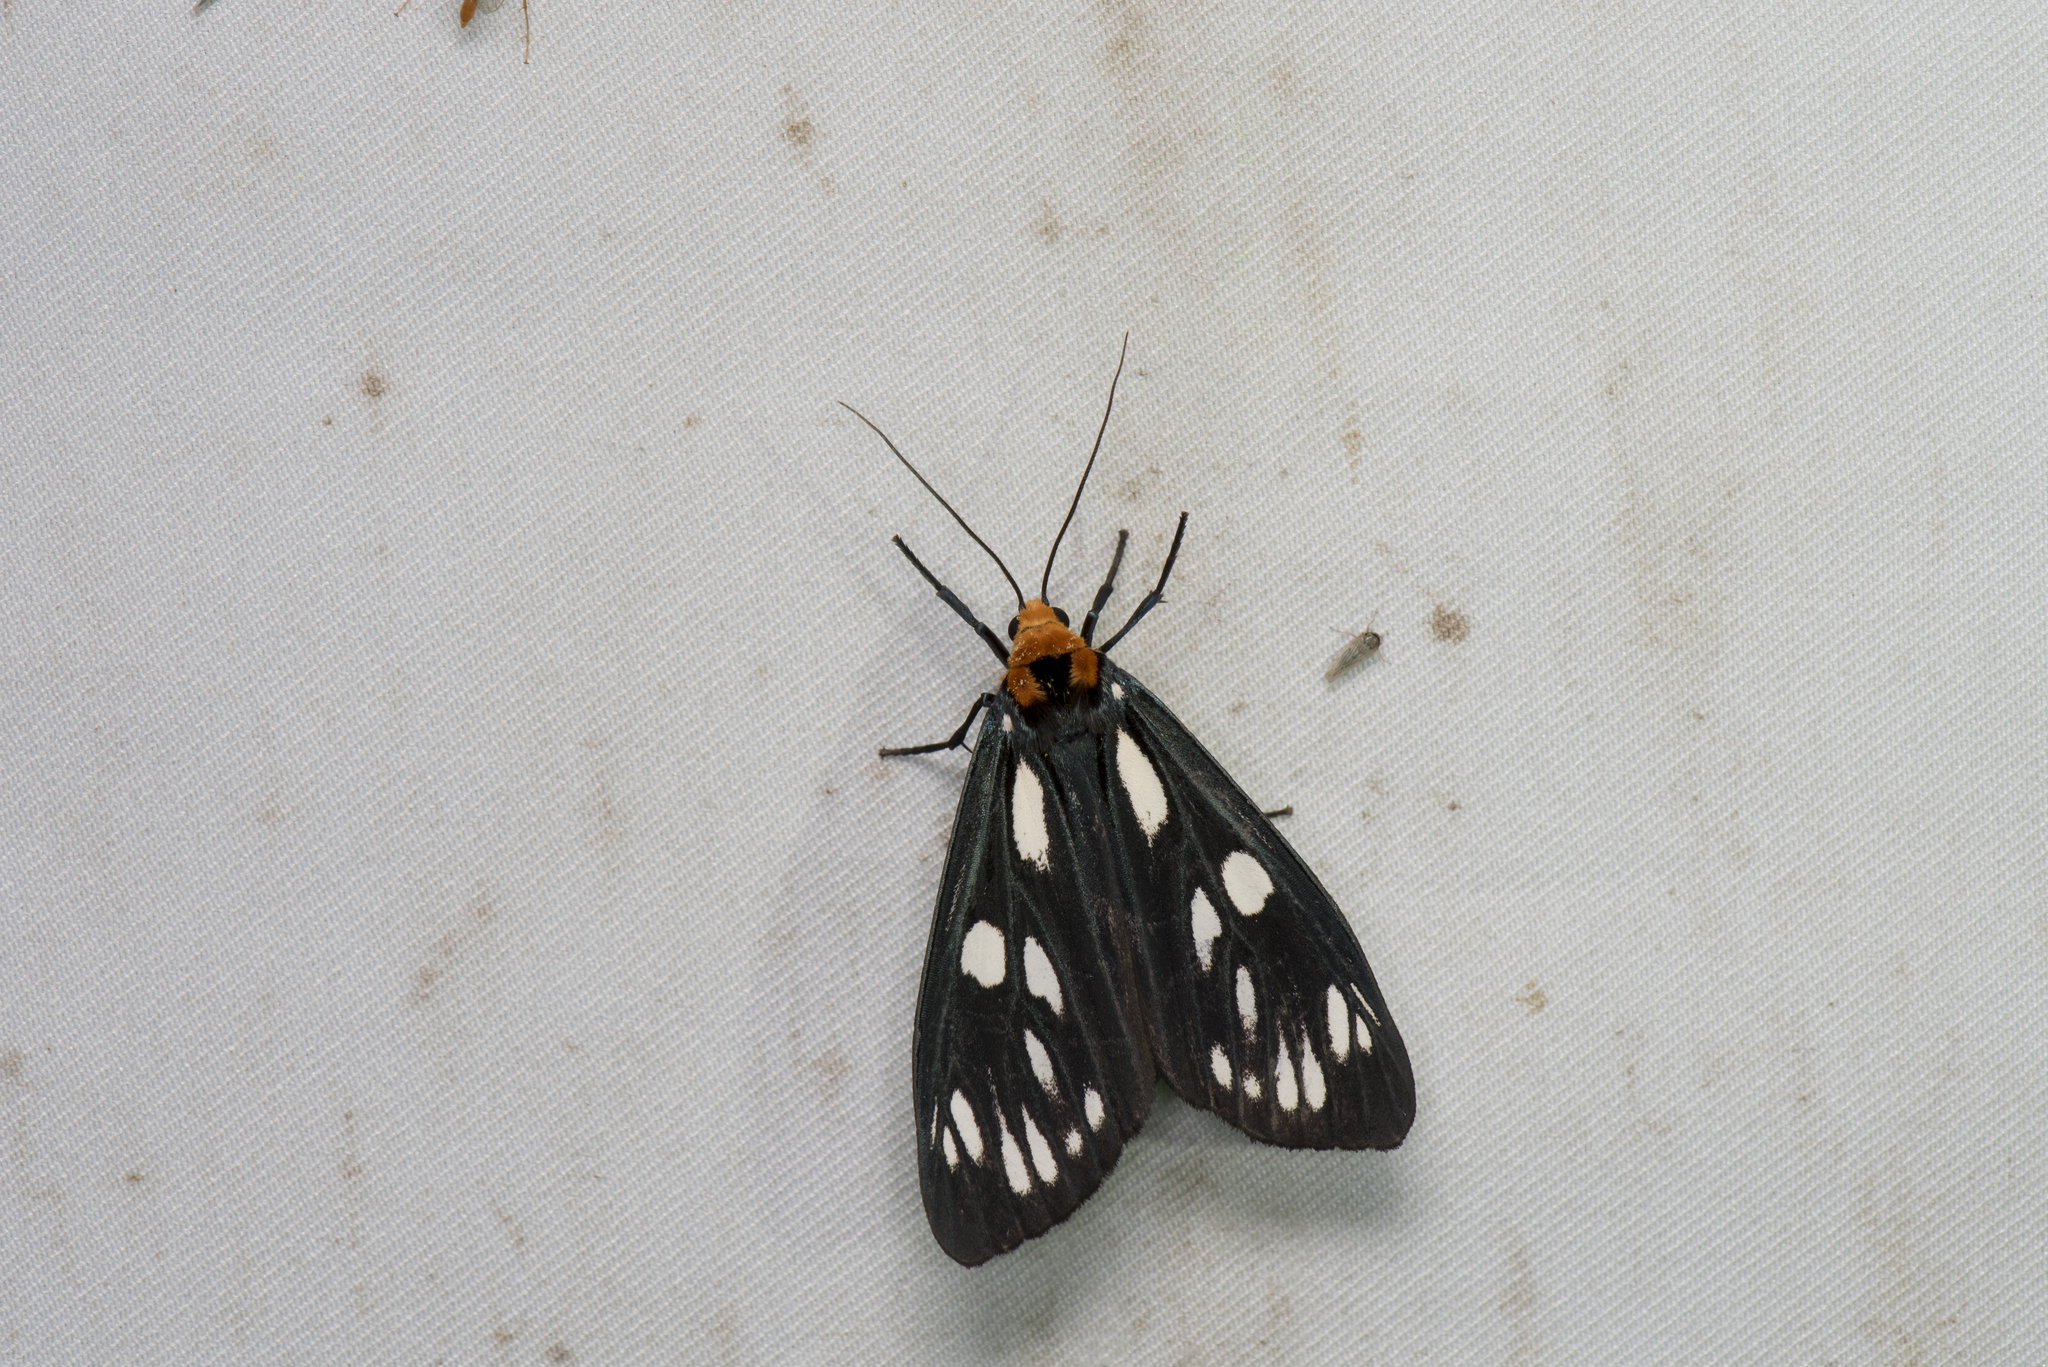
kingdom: Animalia
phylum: Arthropoda
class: Insecta
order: Lepidoptera
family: Erebidae
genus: Macrobrochis
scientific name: Macrobrochis gigas
